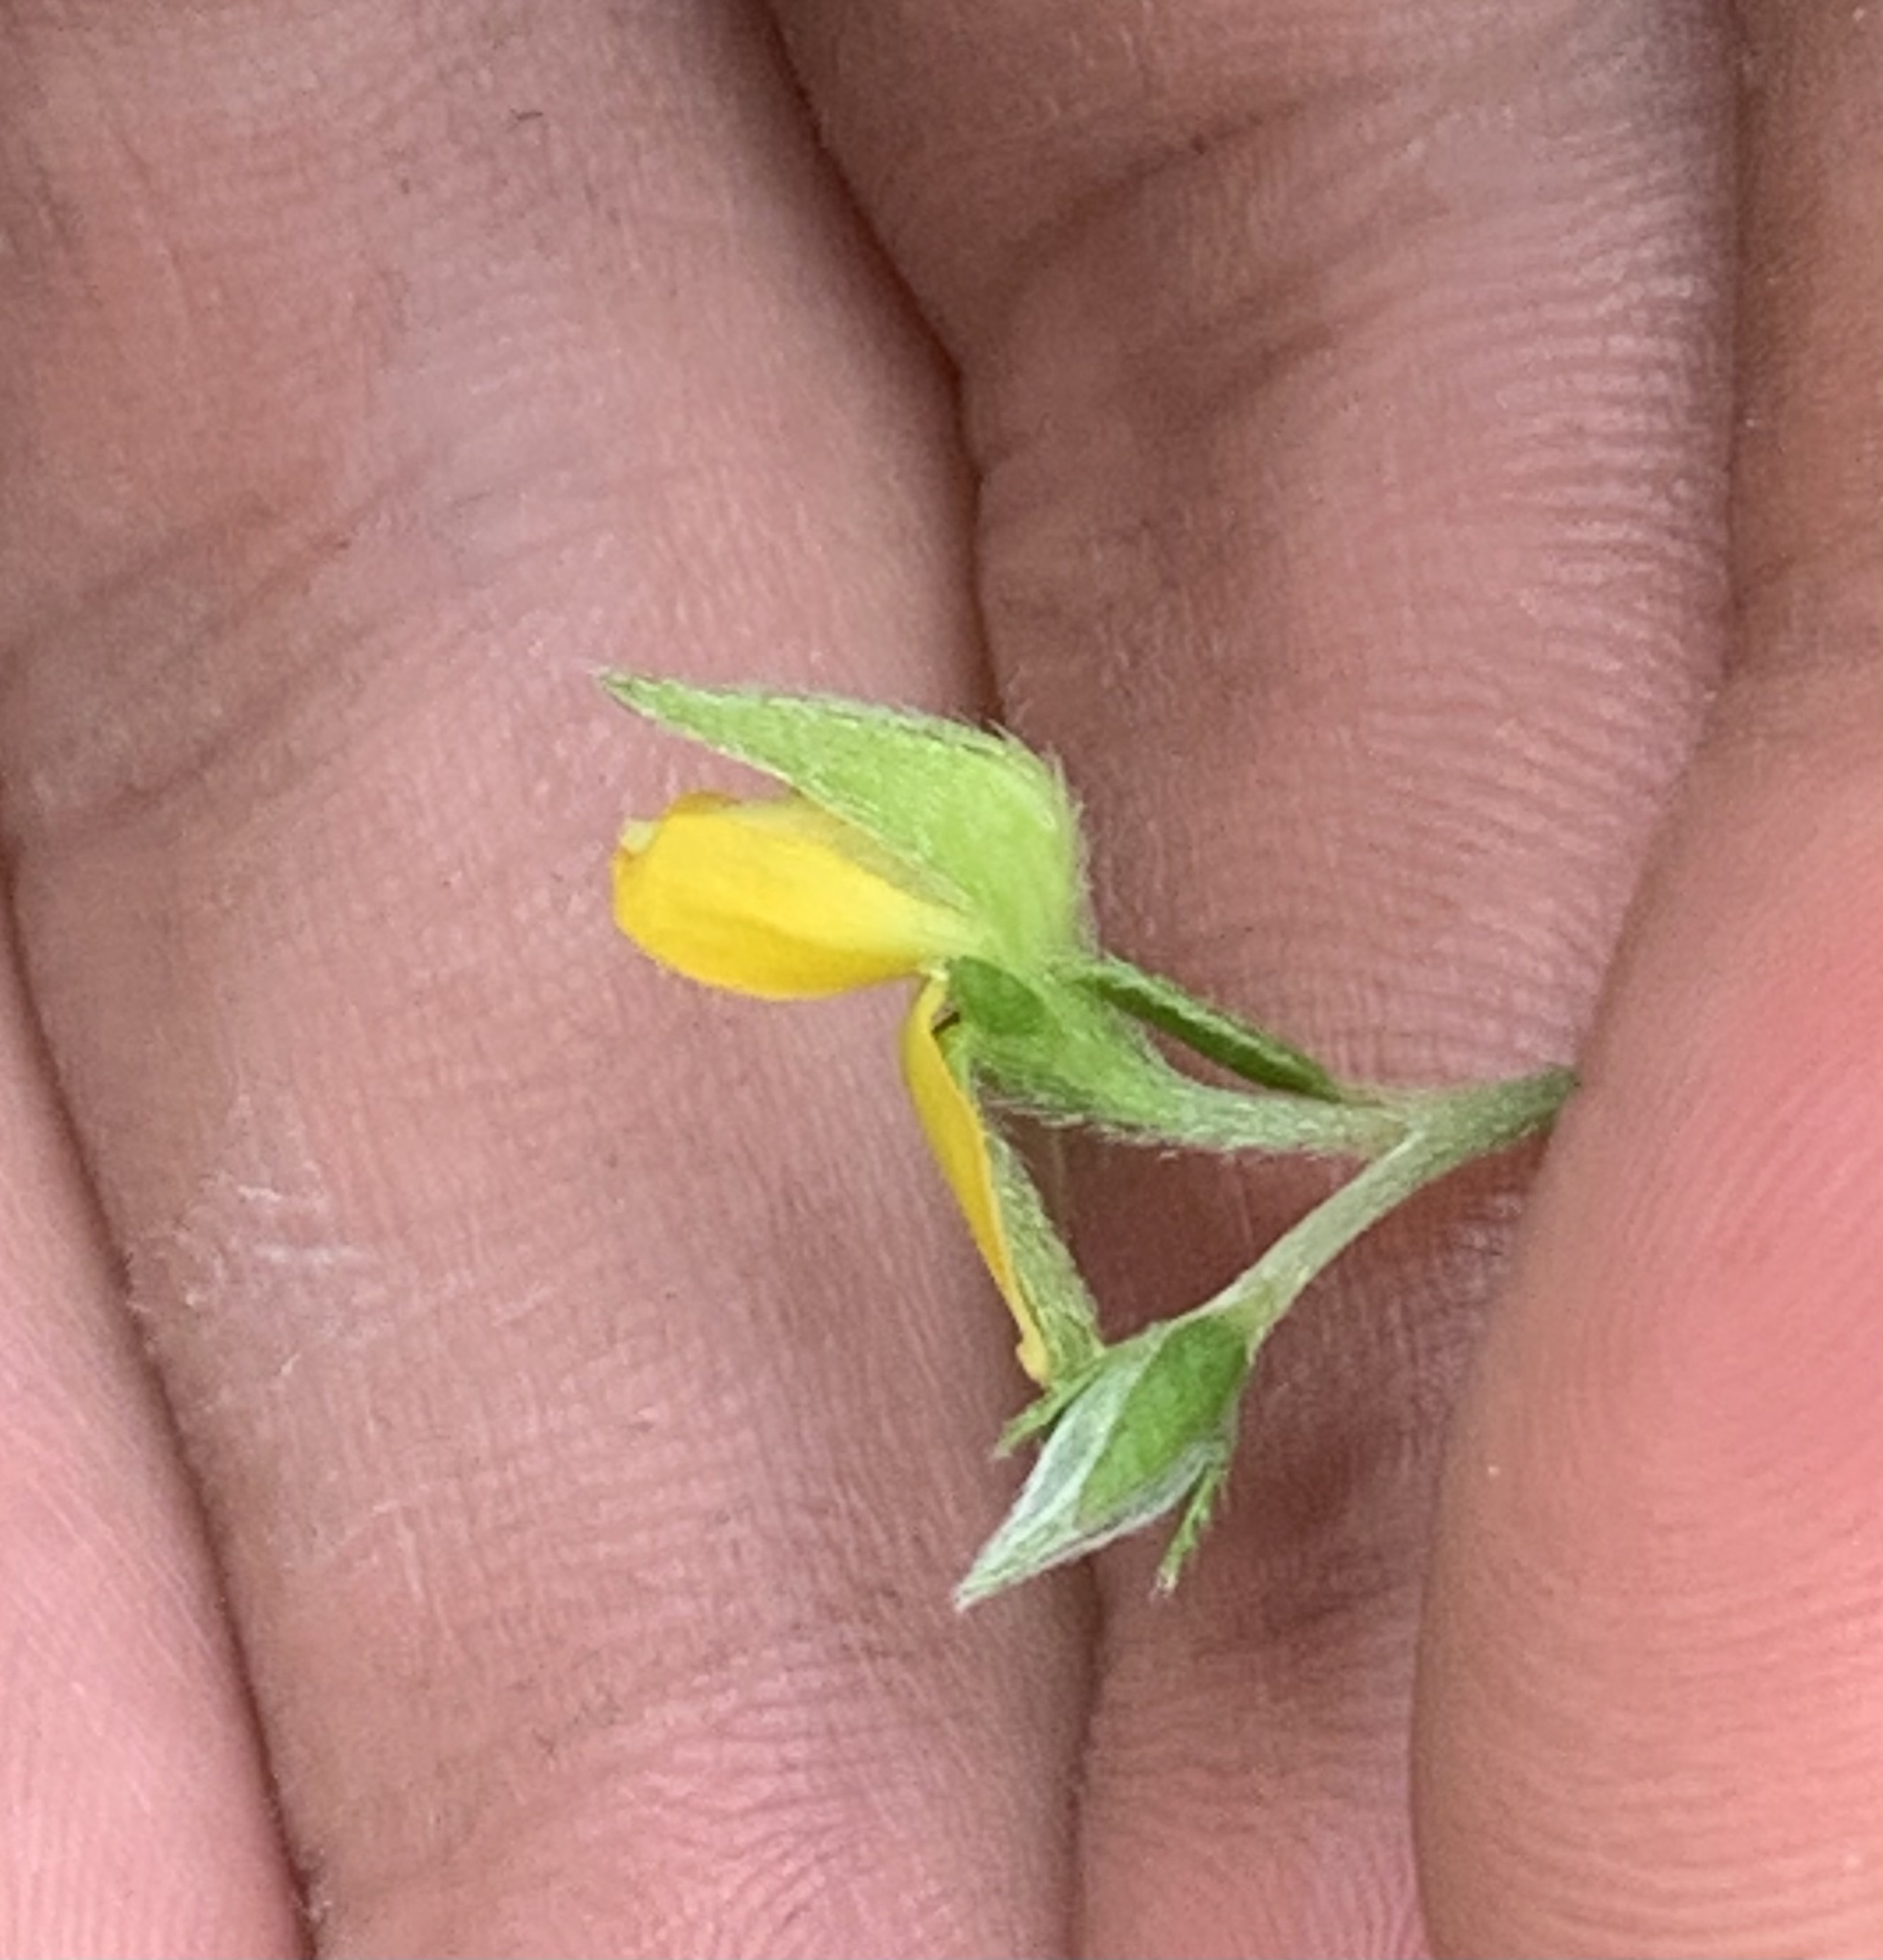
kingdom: Plantae
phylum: Tracheophyta
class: Magnoliopsida
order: Fabales
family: Fabaceae
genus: Crotalaria
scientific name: Crotalaria rotundifolia
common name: Prostrate rattlebox
